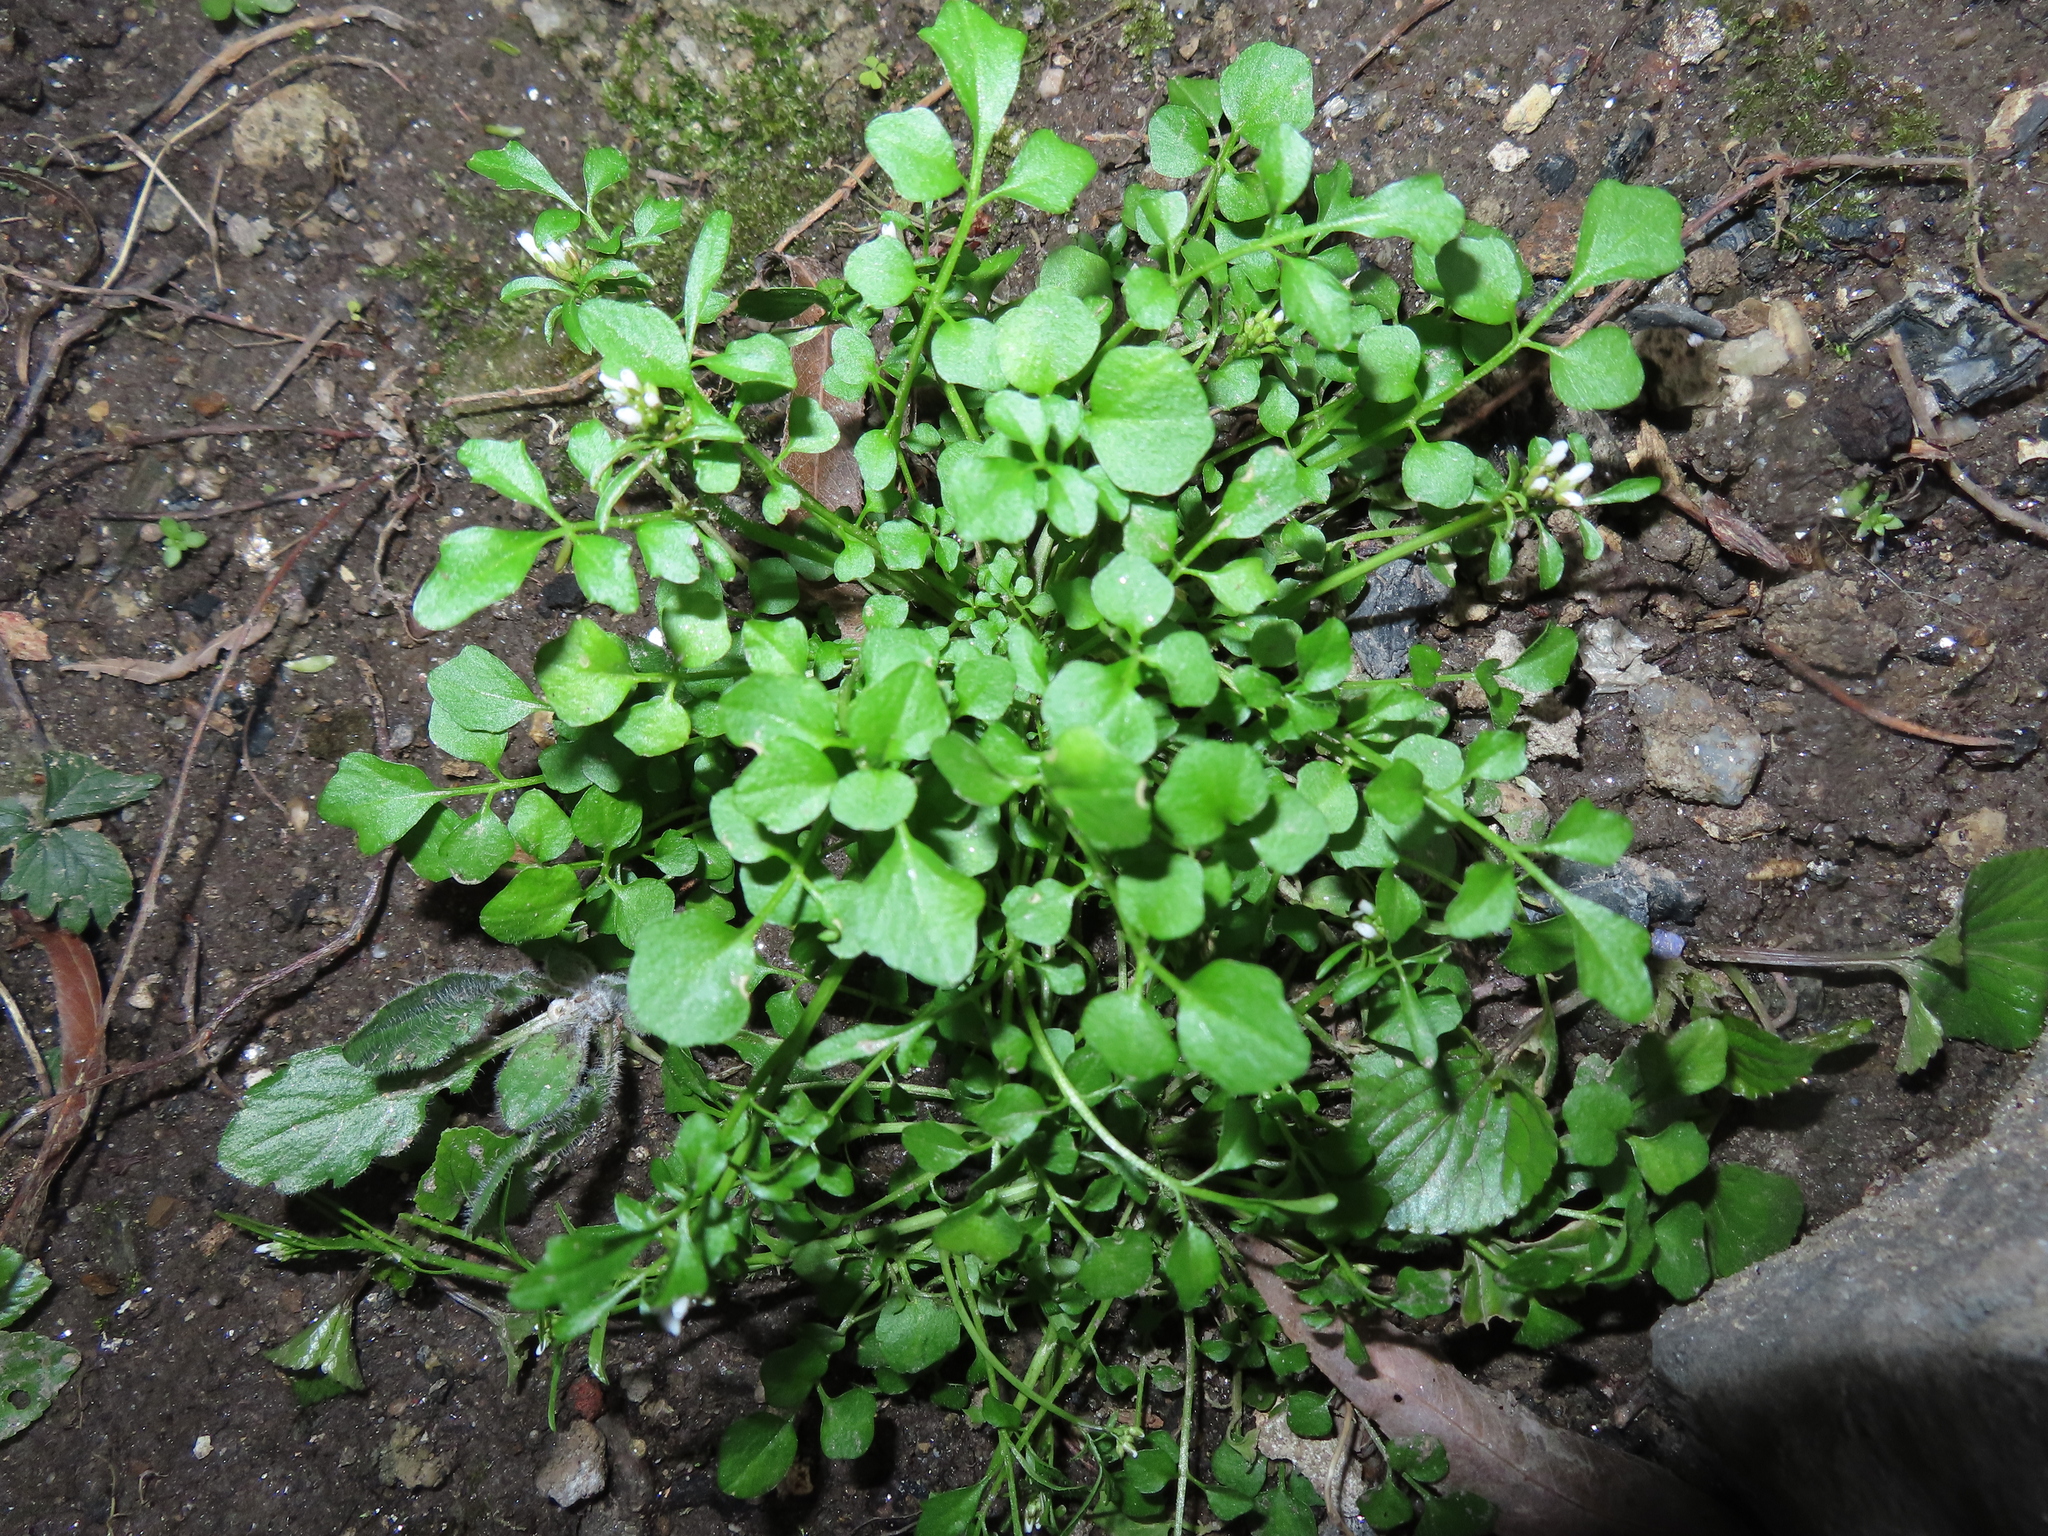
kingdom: Plantae
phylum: Tracheophyta
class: Magnoliopsida
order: Brassicales
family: Brassicaceae
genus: Cardamine
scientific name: Cardamine hirsuta
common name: Hairy bittercress
